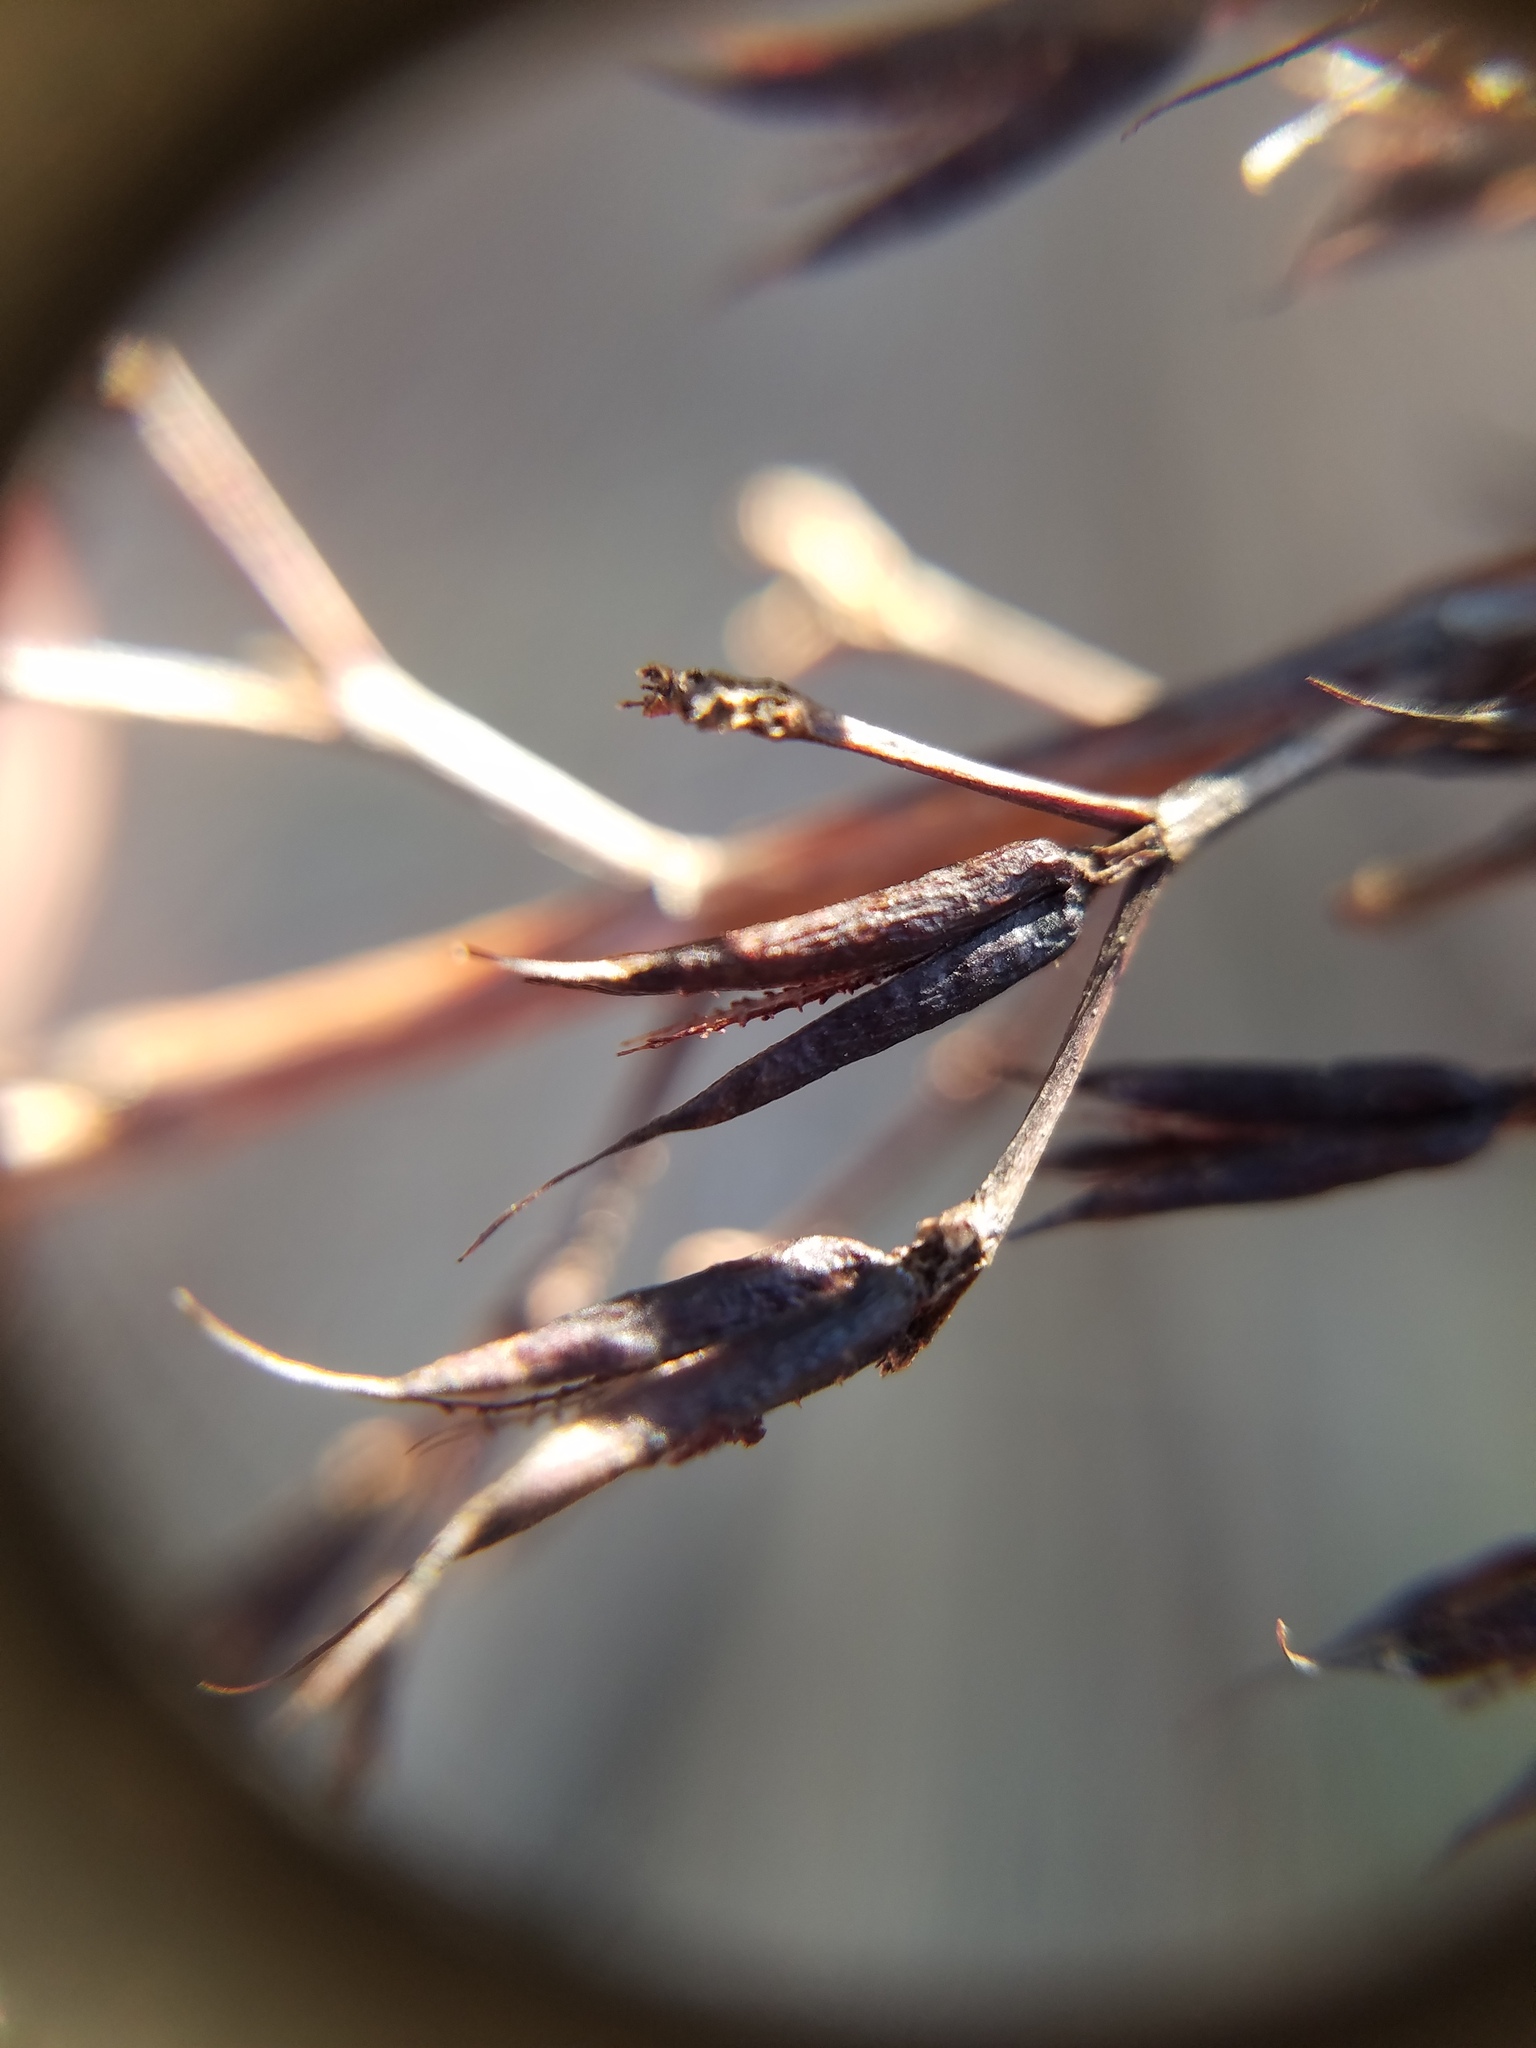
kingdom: Plantae
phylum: Tracheophyta
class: Magnoliopsida
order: Malpighiales
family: Hypericaceae
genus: Hypericum
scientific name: Hypericum nitidum
